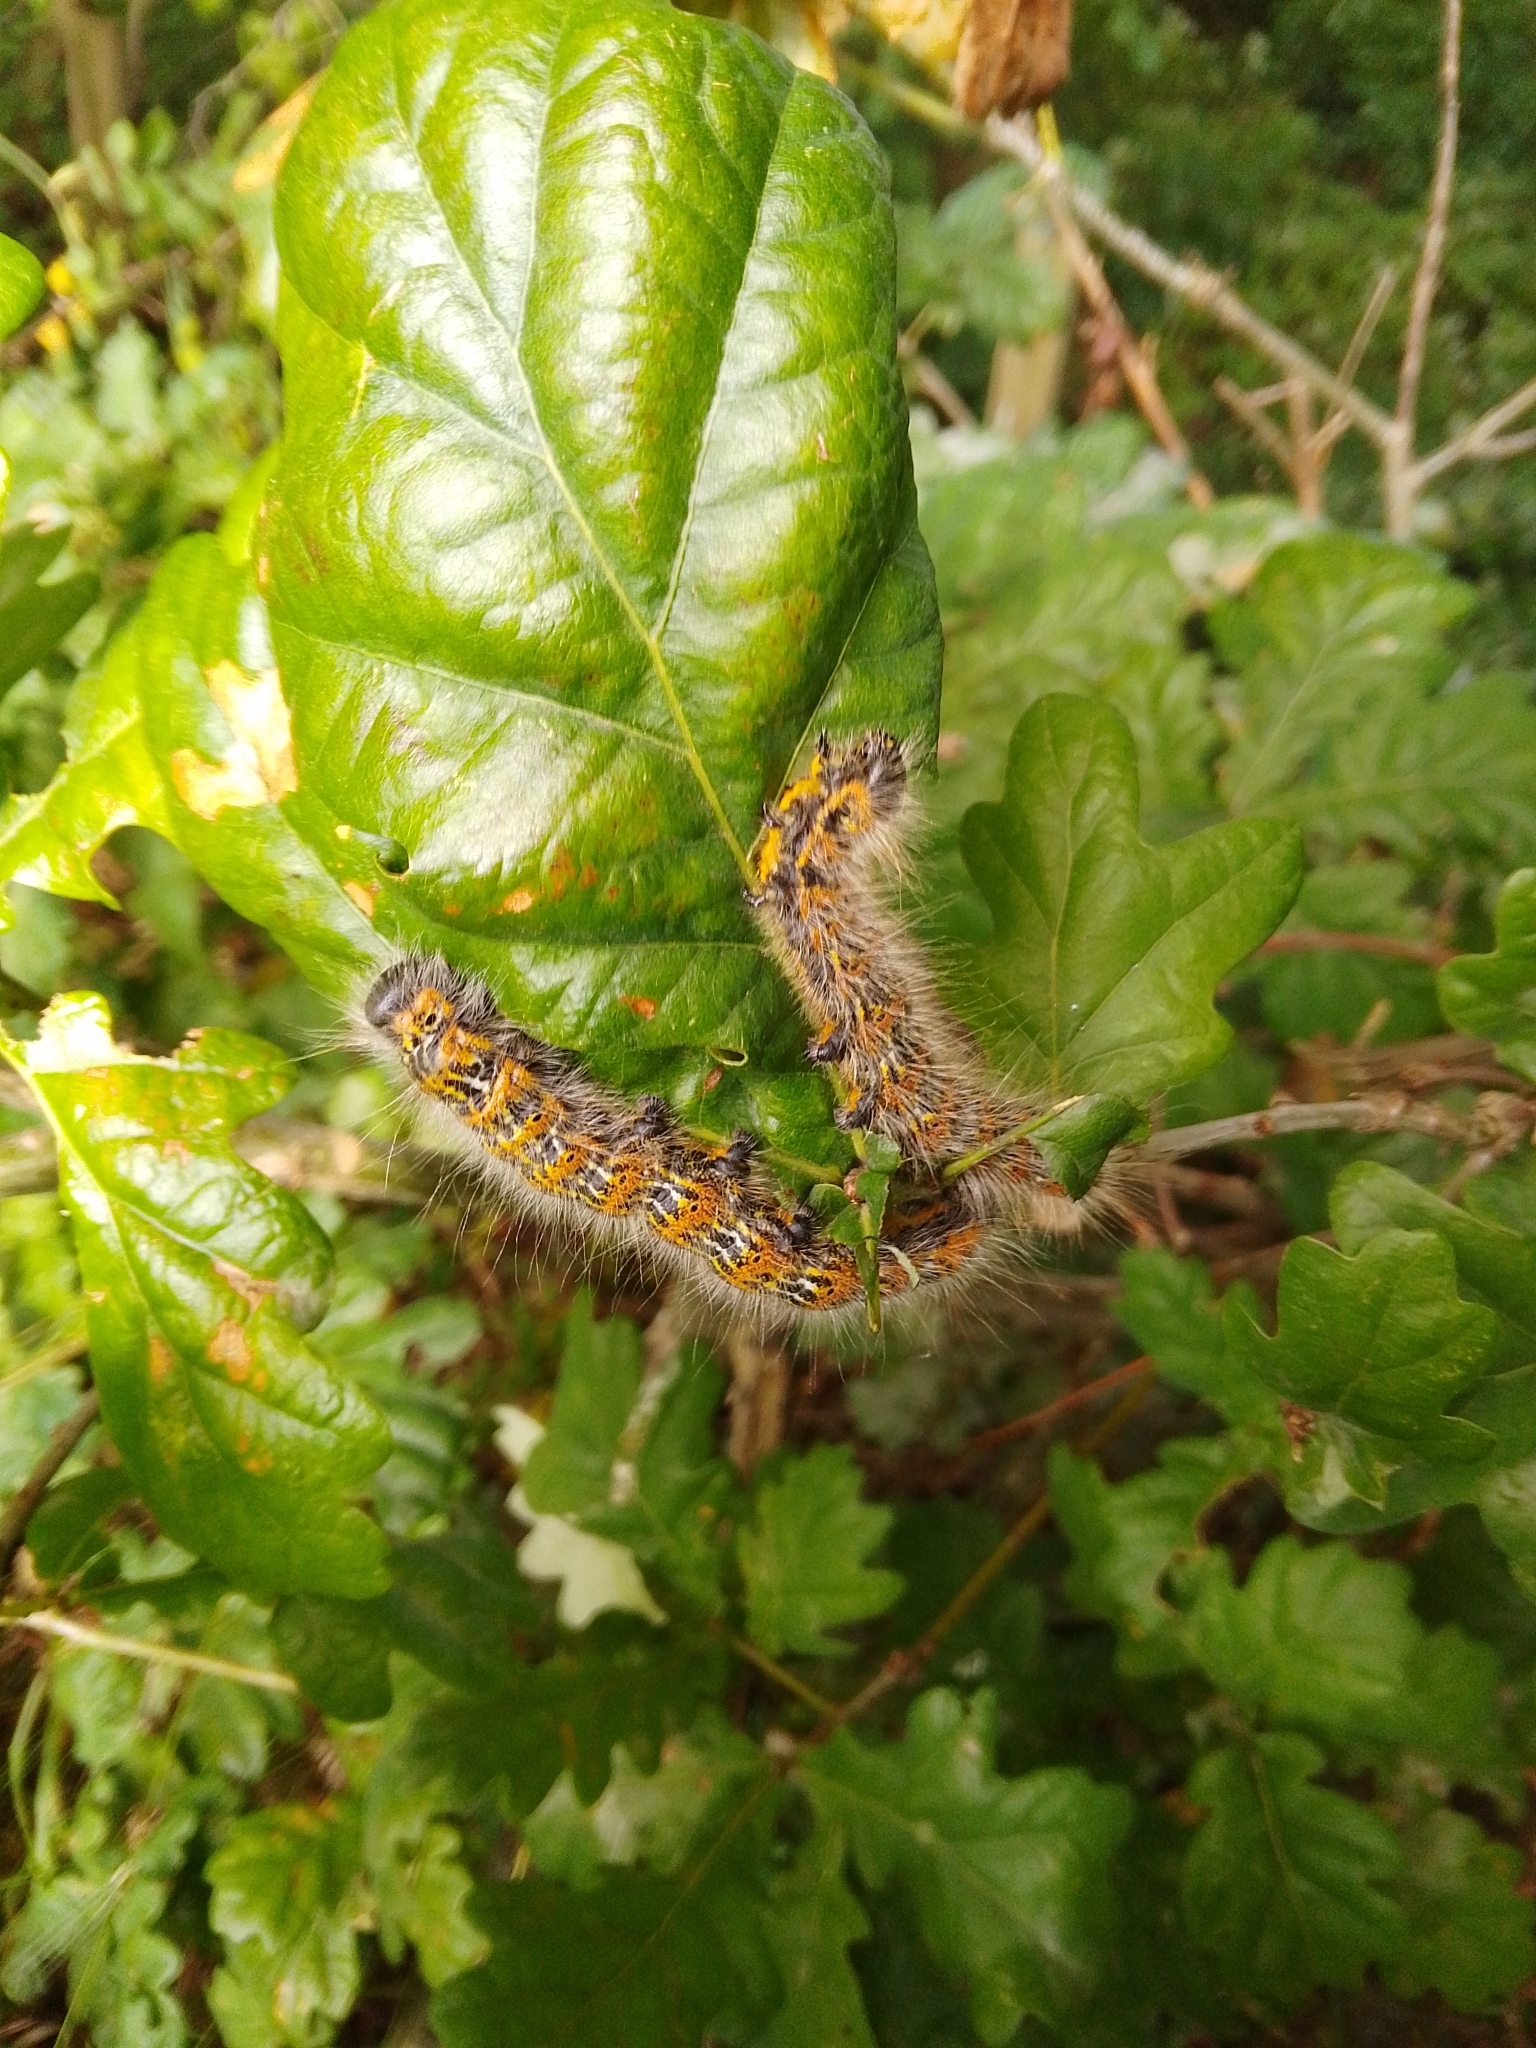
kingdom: Animalia
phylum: Arthropoda
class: Insecta
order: Lepidoptera
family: Notodontidae
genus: Phalera
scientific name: Phalera bucephala
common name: Buff-tip
